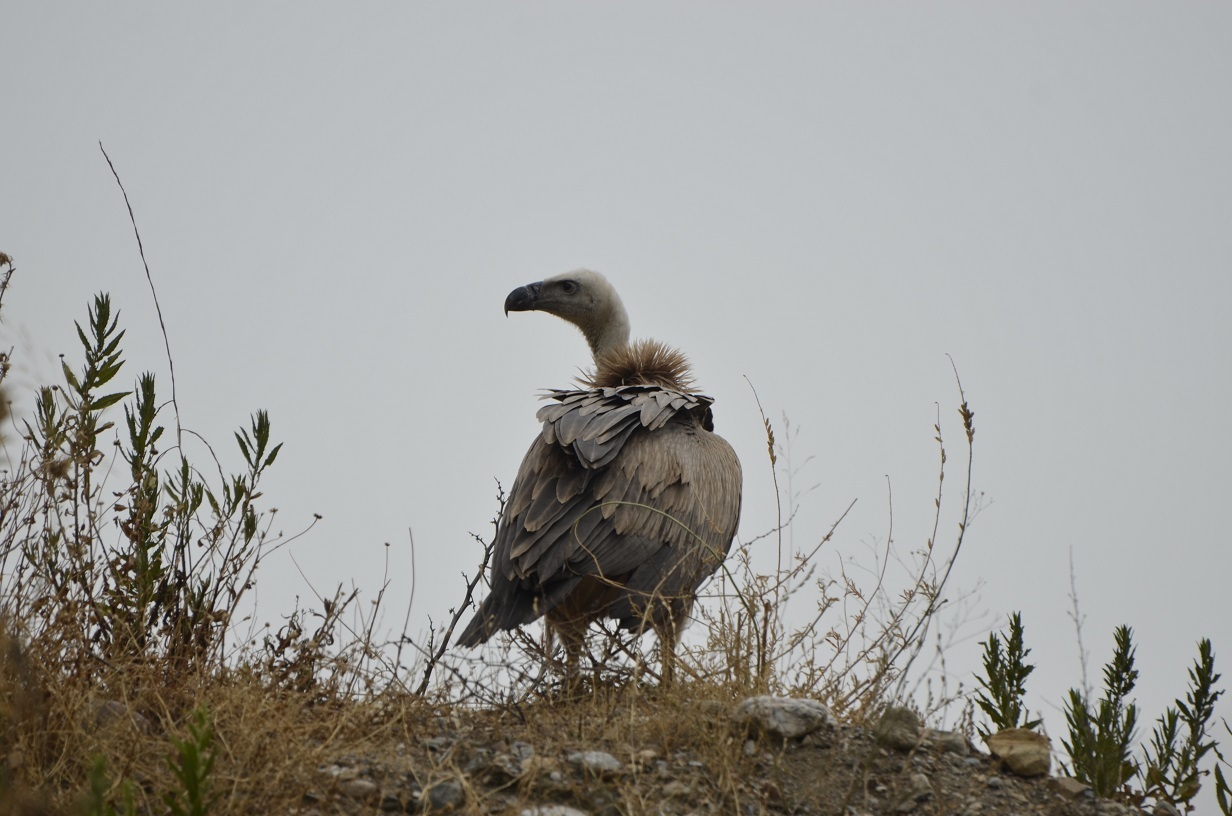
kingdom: Animalia
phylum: Chordata
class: Aves
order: Accipitriformes
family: Accipitridae
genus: Gyps
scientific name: Gyps fulvus
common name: Griffon vulture
